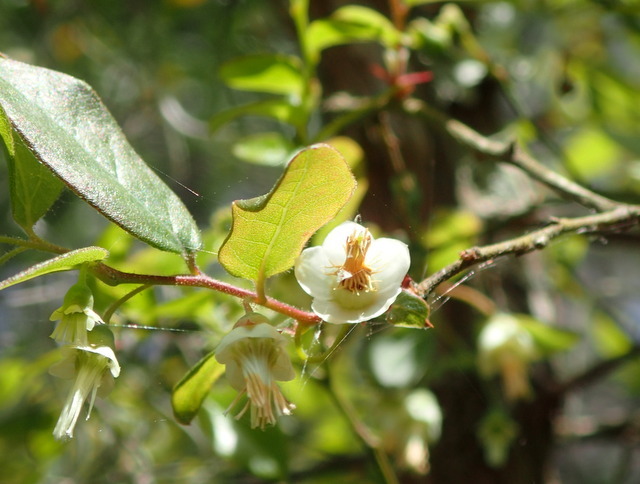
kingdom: Plantae
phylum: Tracheophyta
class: Magnoliopsida
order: Ericales
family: Ericaceae
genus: Vaccinium
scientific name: Vaccinium stamineum
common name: Deerberry
